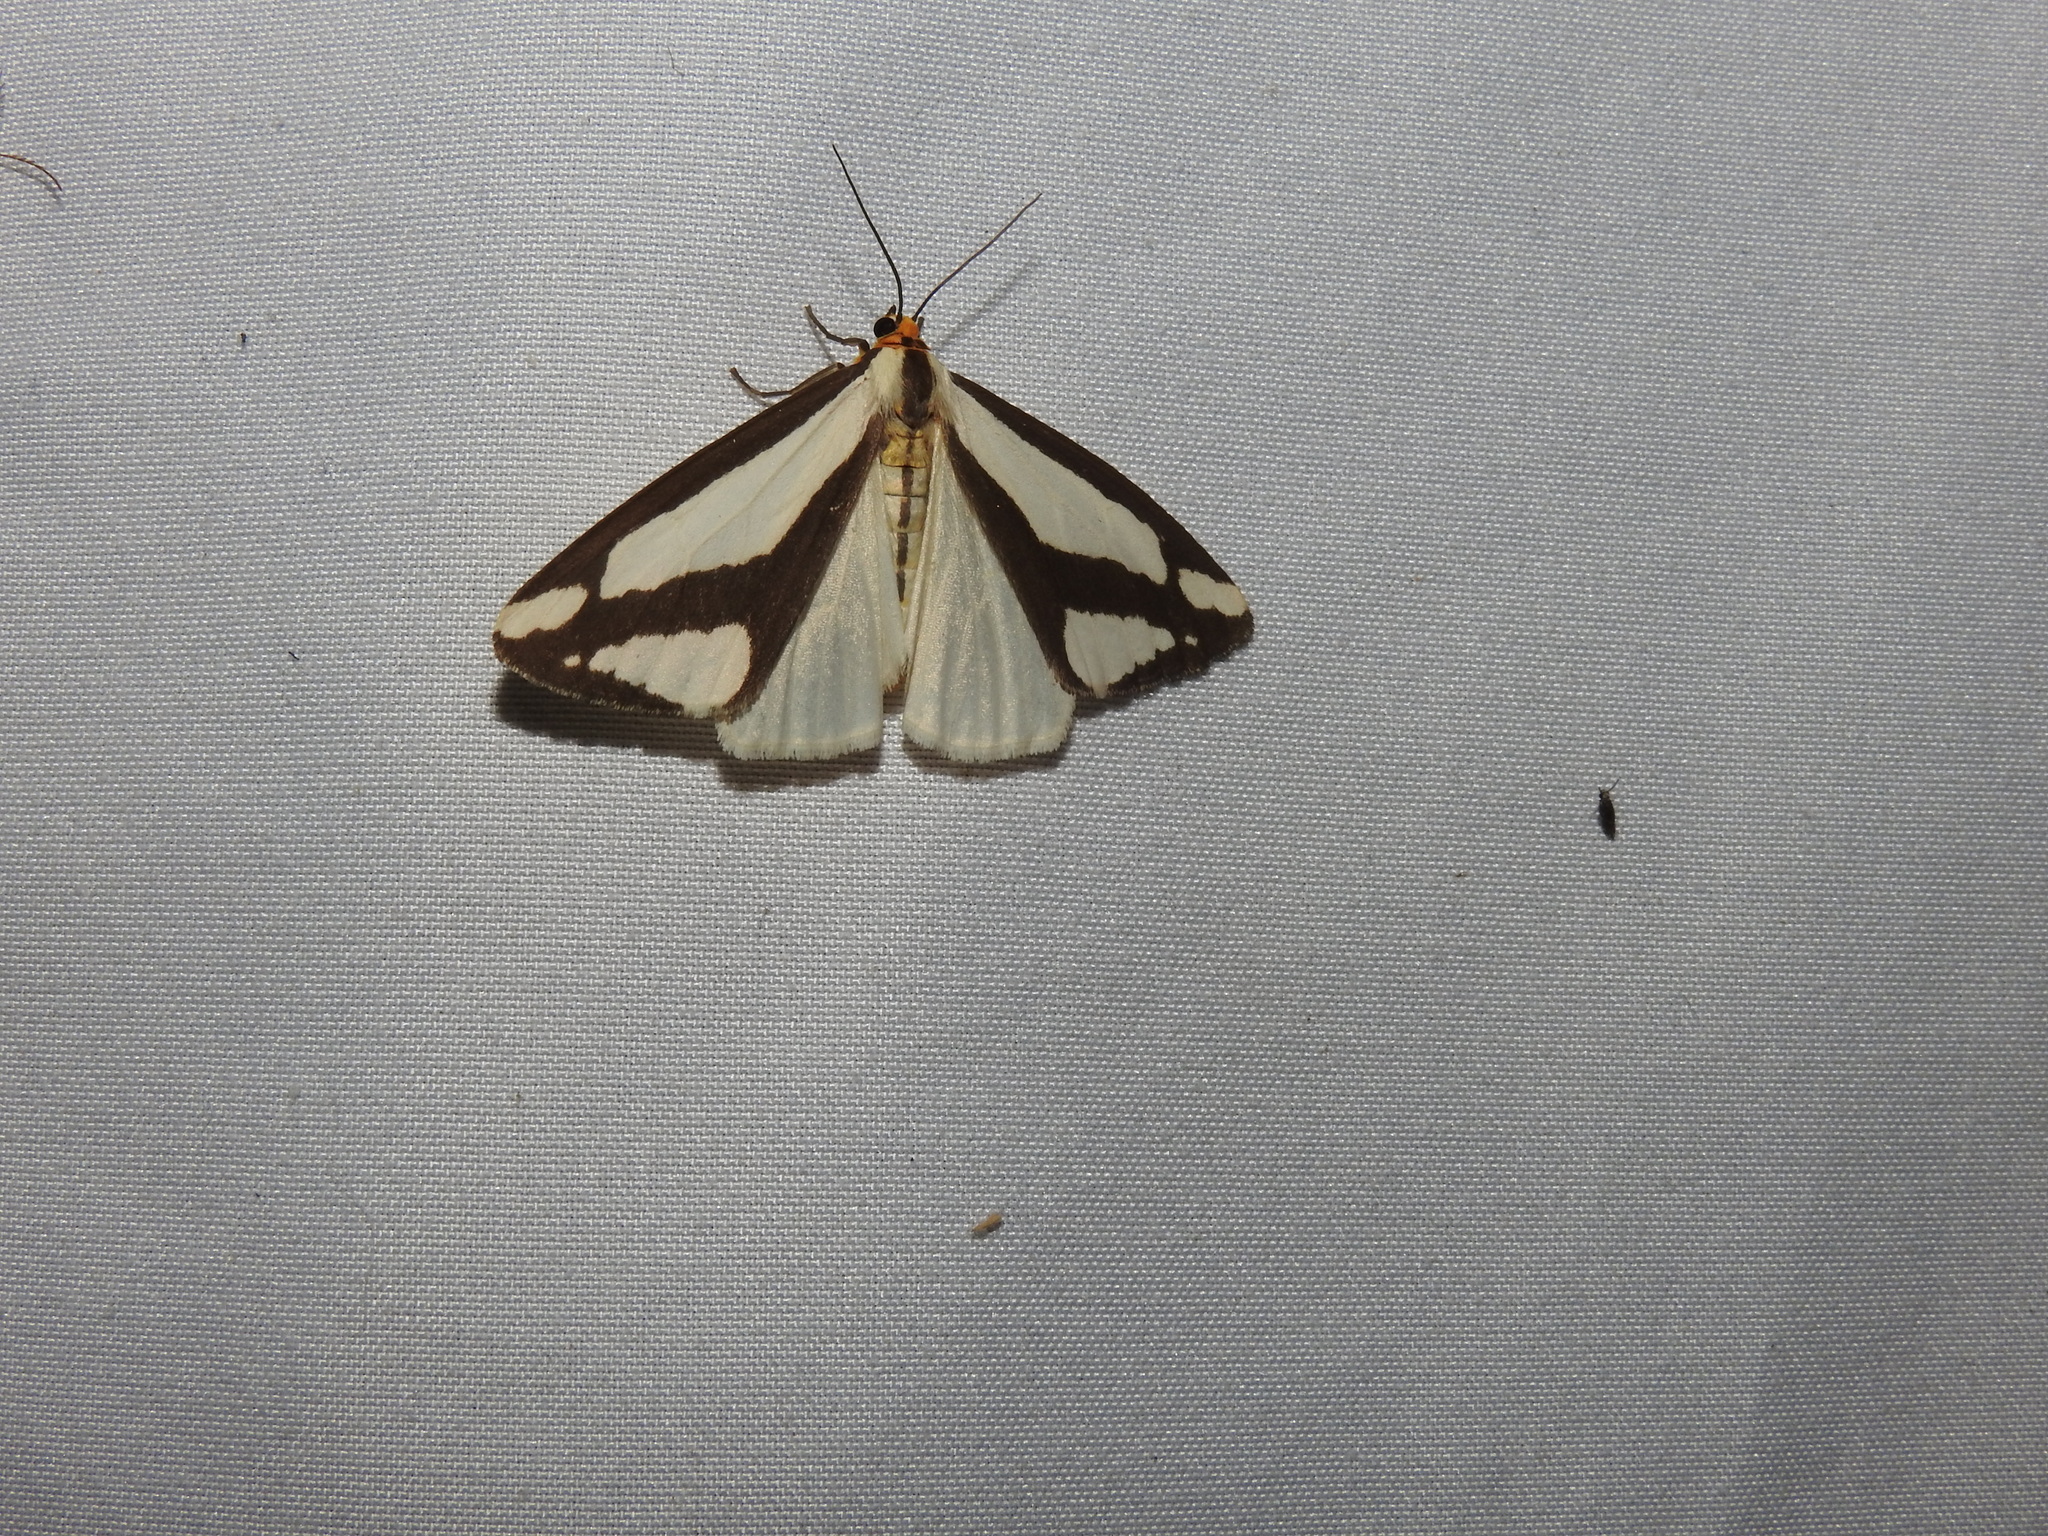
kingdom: Animalia
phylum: Arthropoda
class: Insecta
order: Lepidoptera
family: Erebidae
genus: Haploa
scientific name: Haploa lecontei
